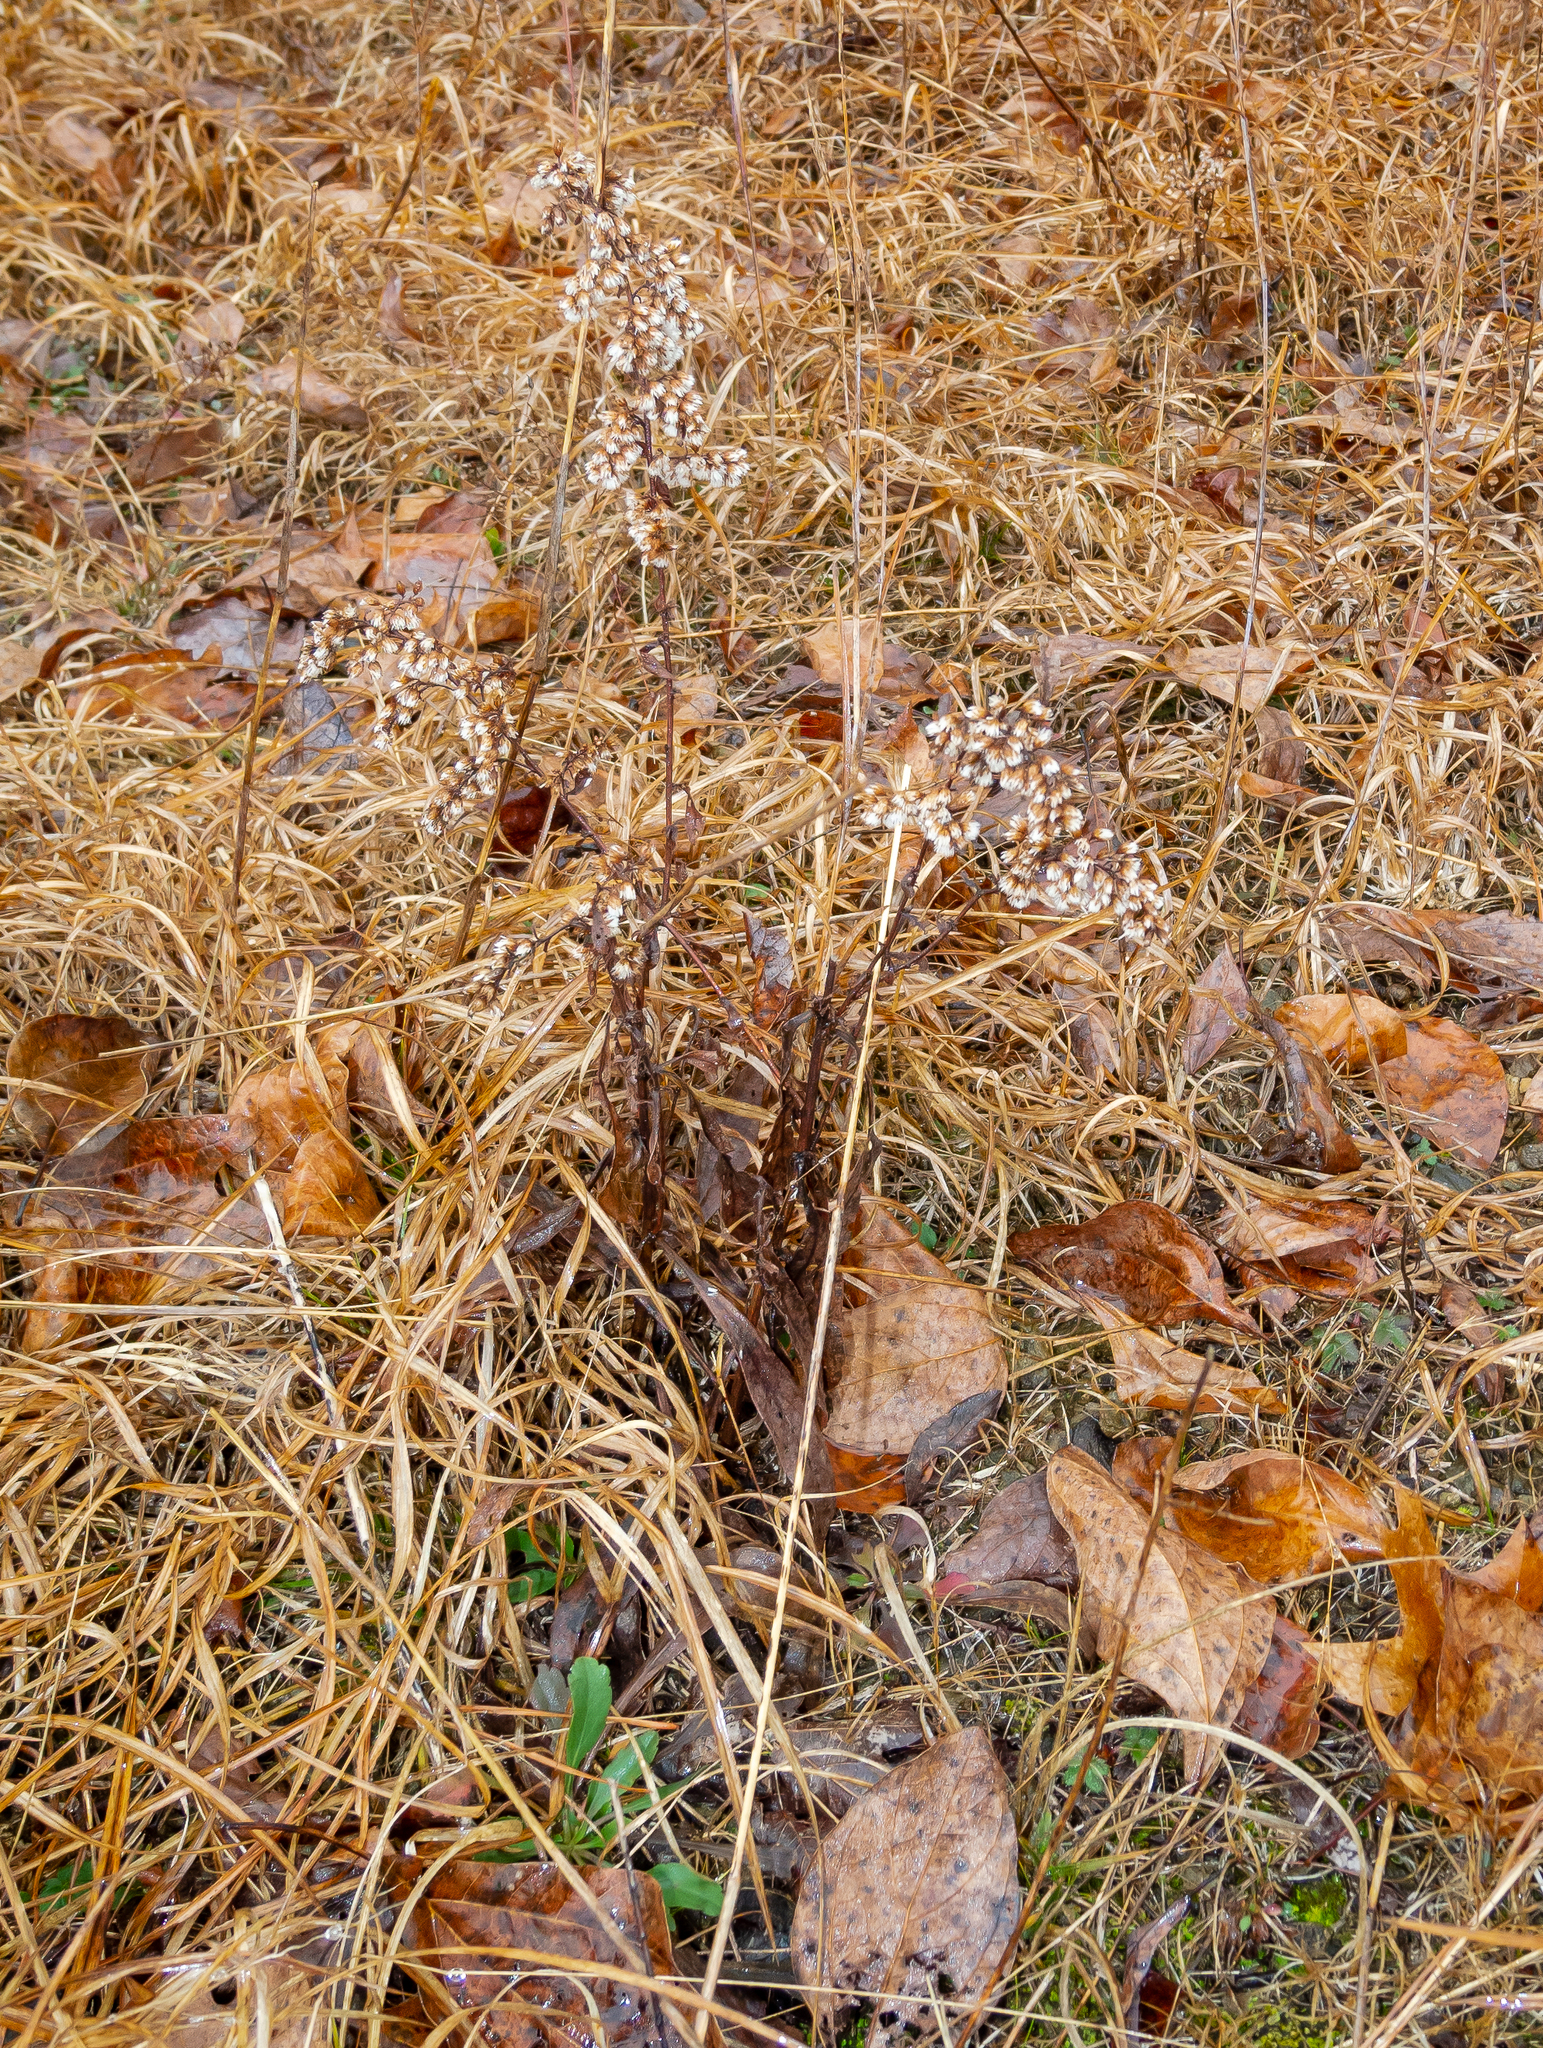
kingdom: Plantae
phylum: Tracheophyta
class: Magnoliopsida
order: Asterales
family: Asteraceae
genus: Solidago
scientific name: Solidago nemoralis
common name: Grey goldenrod
